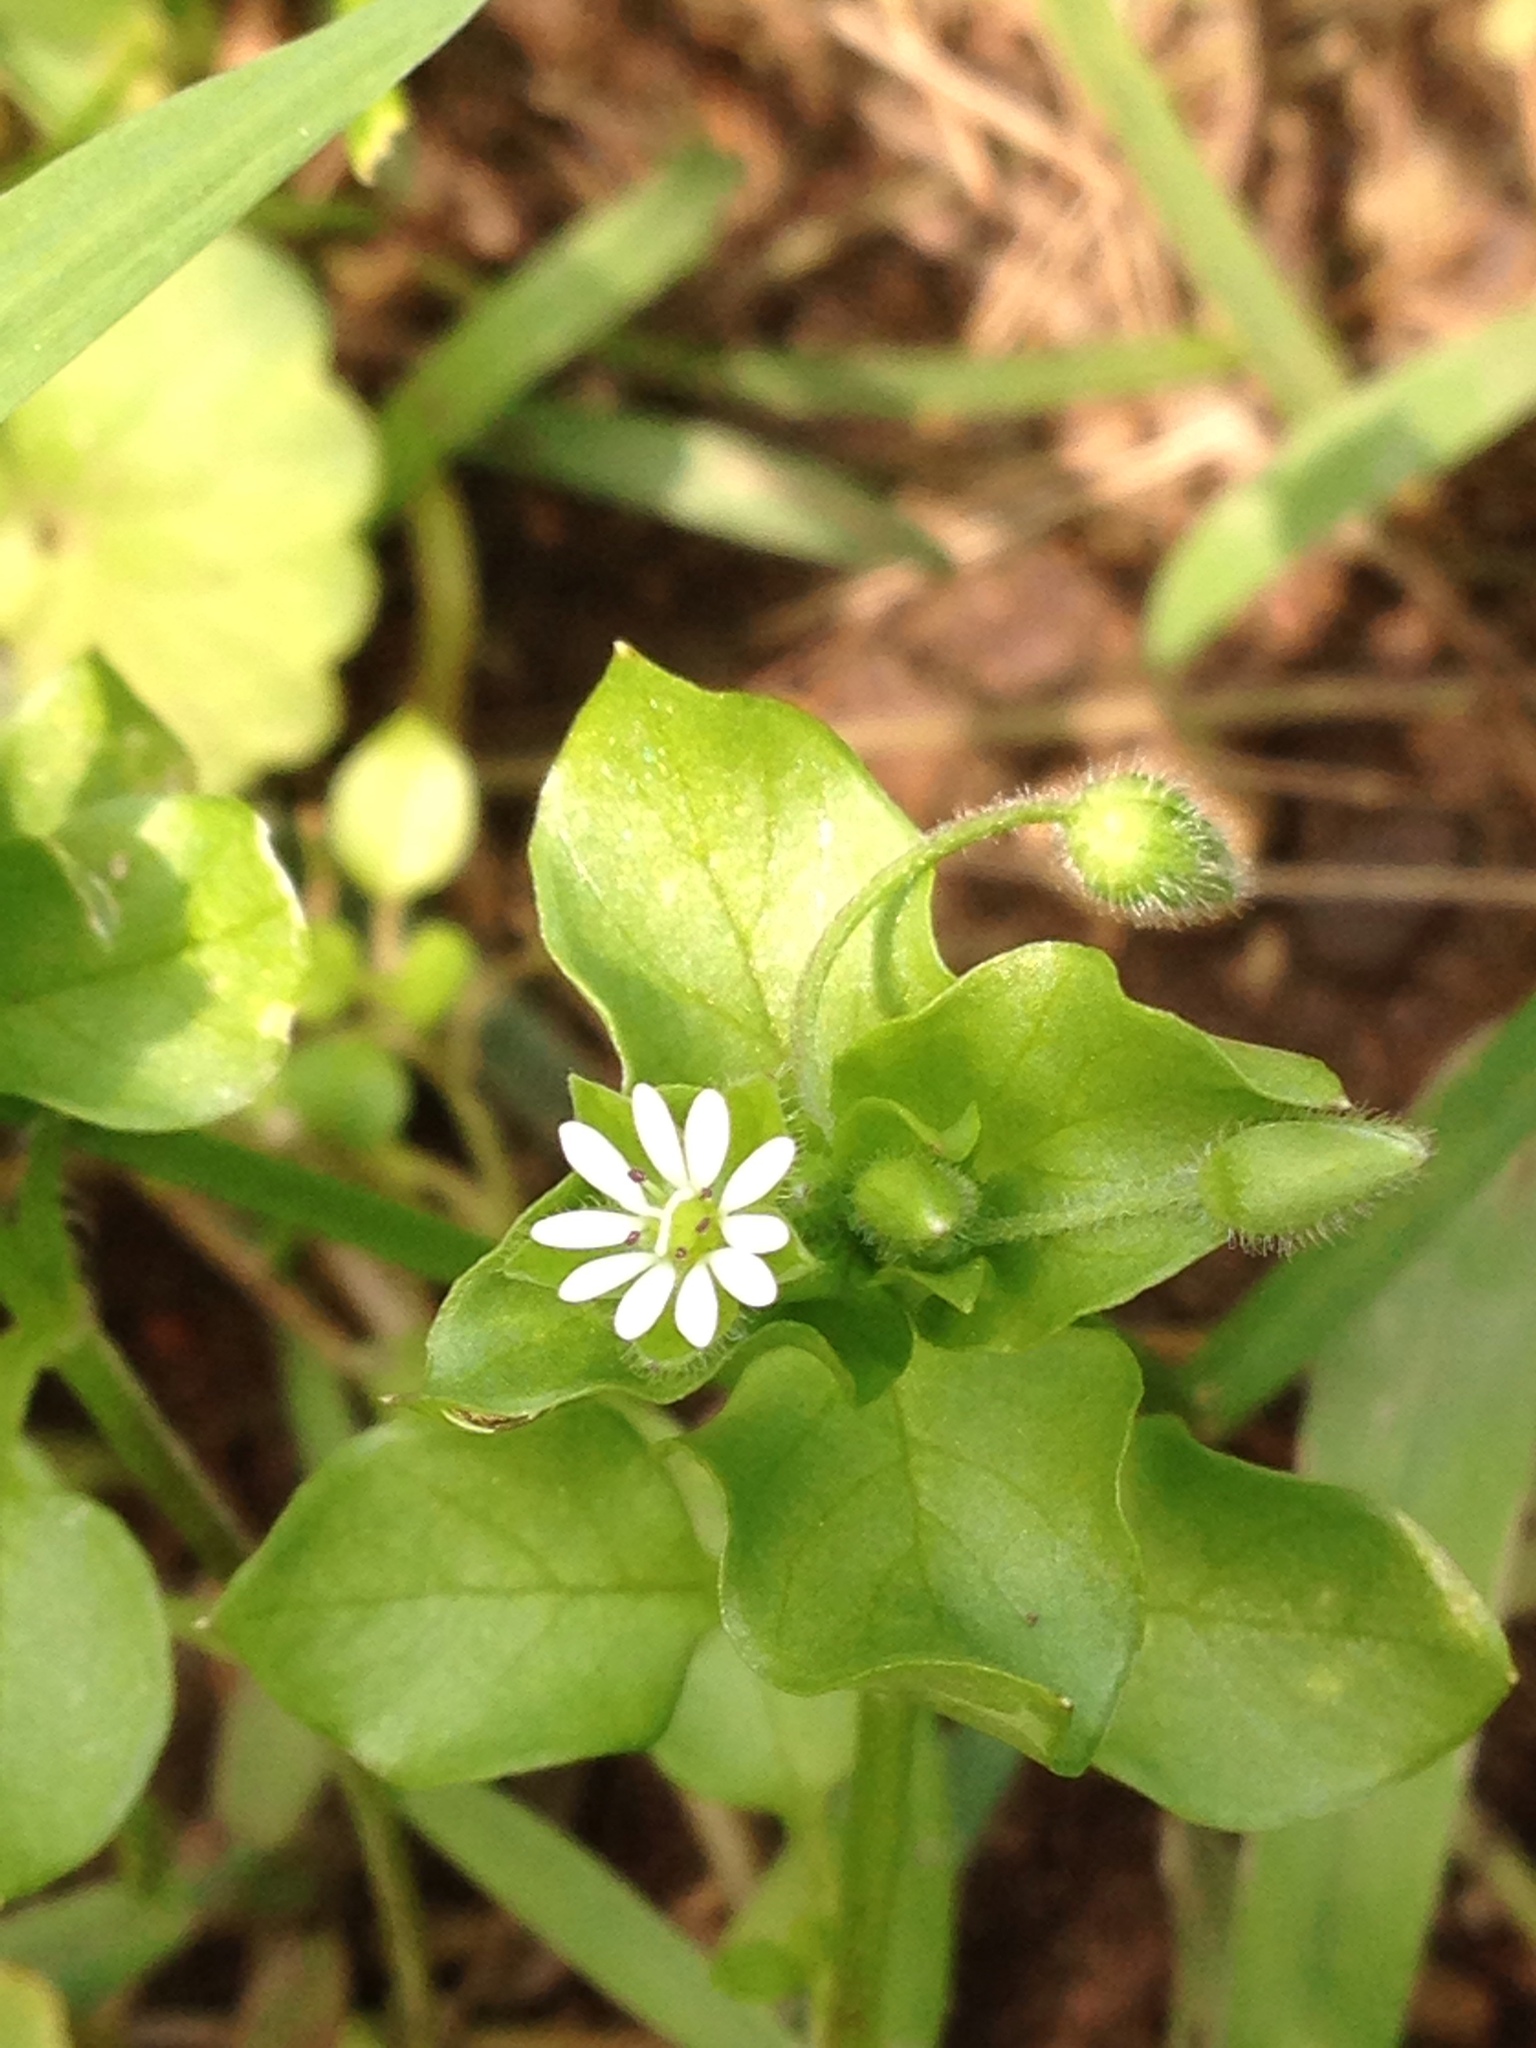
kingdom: Plantae
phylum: Tracheophyta
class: Magnoliopsida
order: Caryophyllales
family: Caryophyllaceae
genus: Stellaria
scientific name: Stellaria media
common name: Common chickweed
